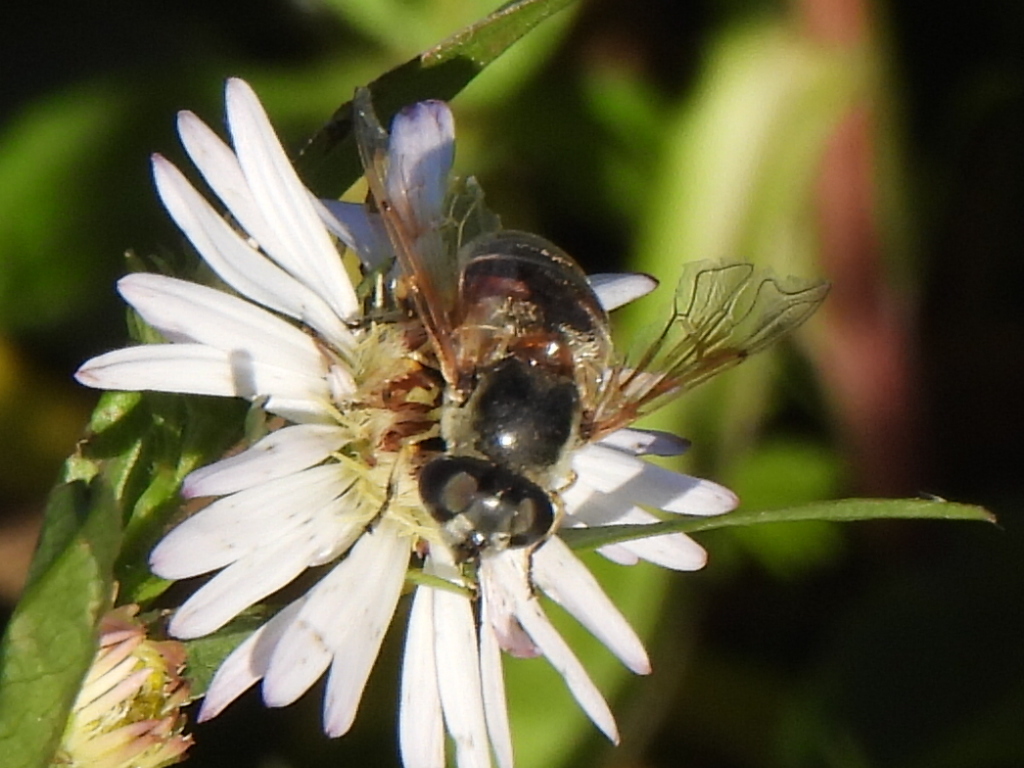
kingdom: Animalia
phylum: Arthropoda
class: Insecta
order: Diptera
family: Syrphidae
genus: Eristalis
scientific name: Eristalis stipator
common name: Yellow-shouldered drone fly
